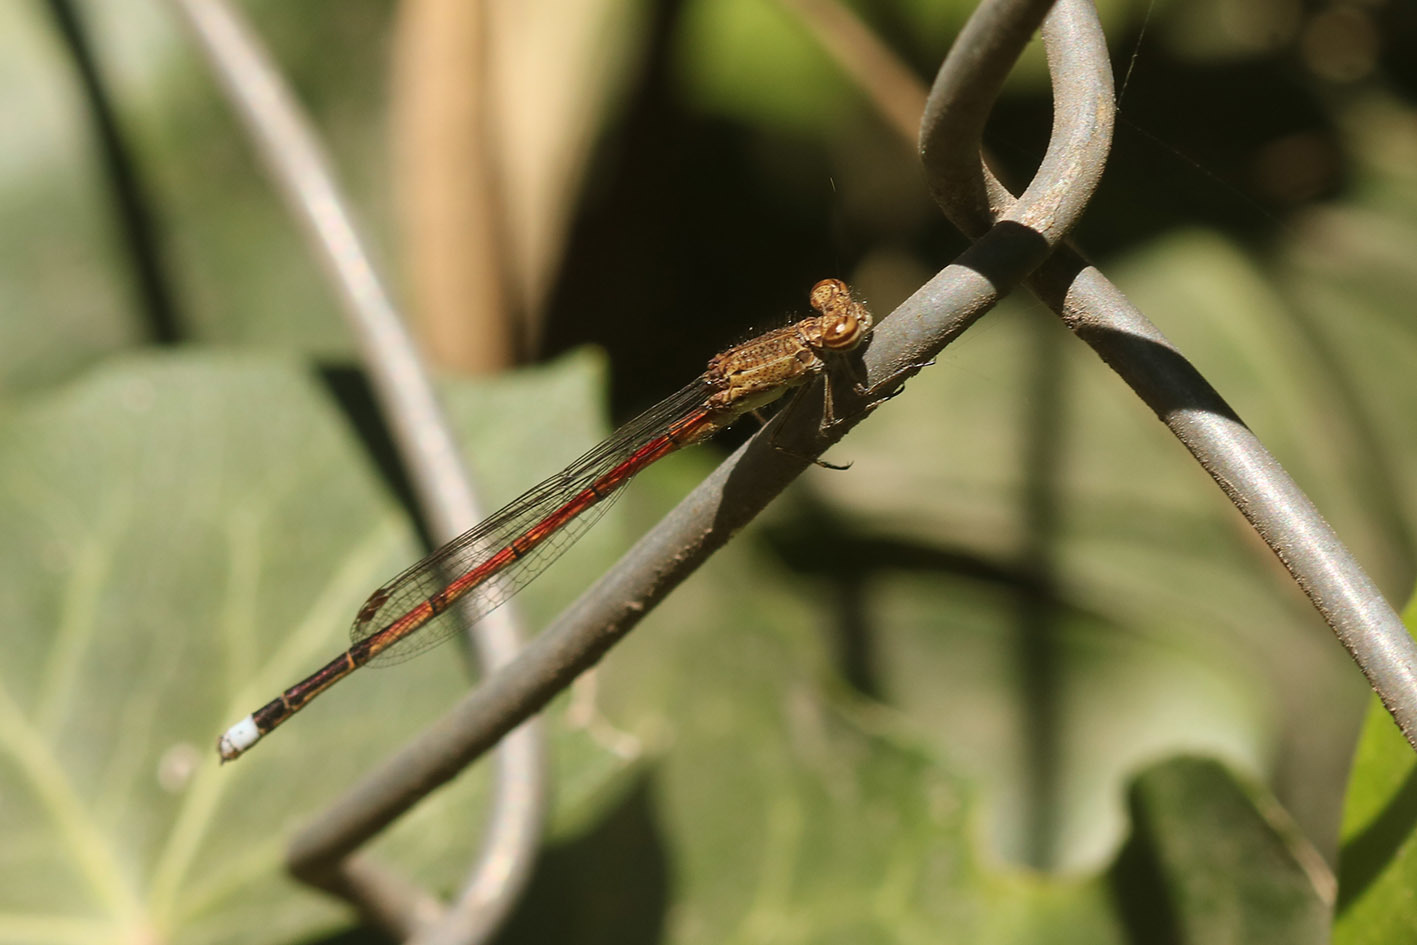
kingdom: Animalia
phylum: Arthropoda
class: Insecta
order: Odonata
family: Coenagrionidae
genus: Oxyagrion
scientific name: Oxyagrion terminale
